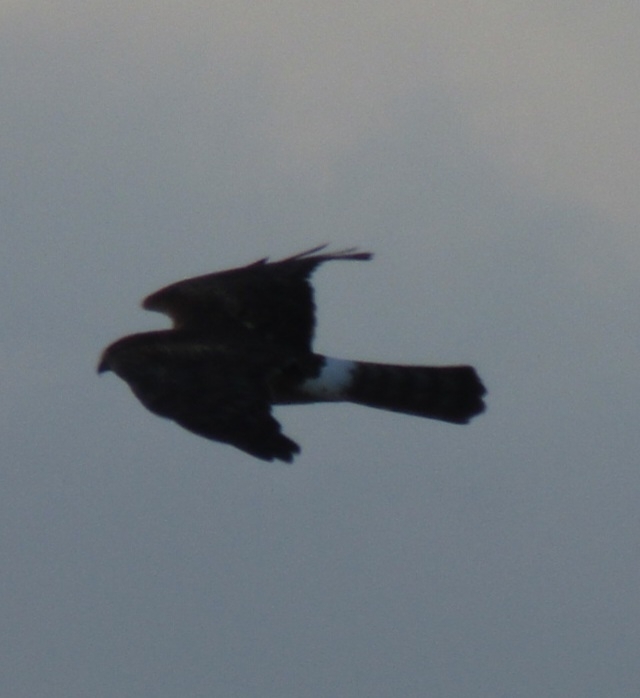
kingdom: Animalia
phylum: Chordata
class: Aves
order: Accipitriformes
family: Accipitridae
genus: Circus
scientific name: Circus cyaneus
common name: Hen harrier
